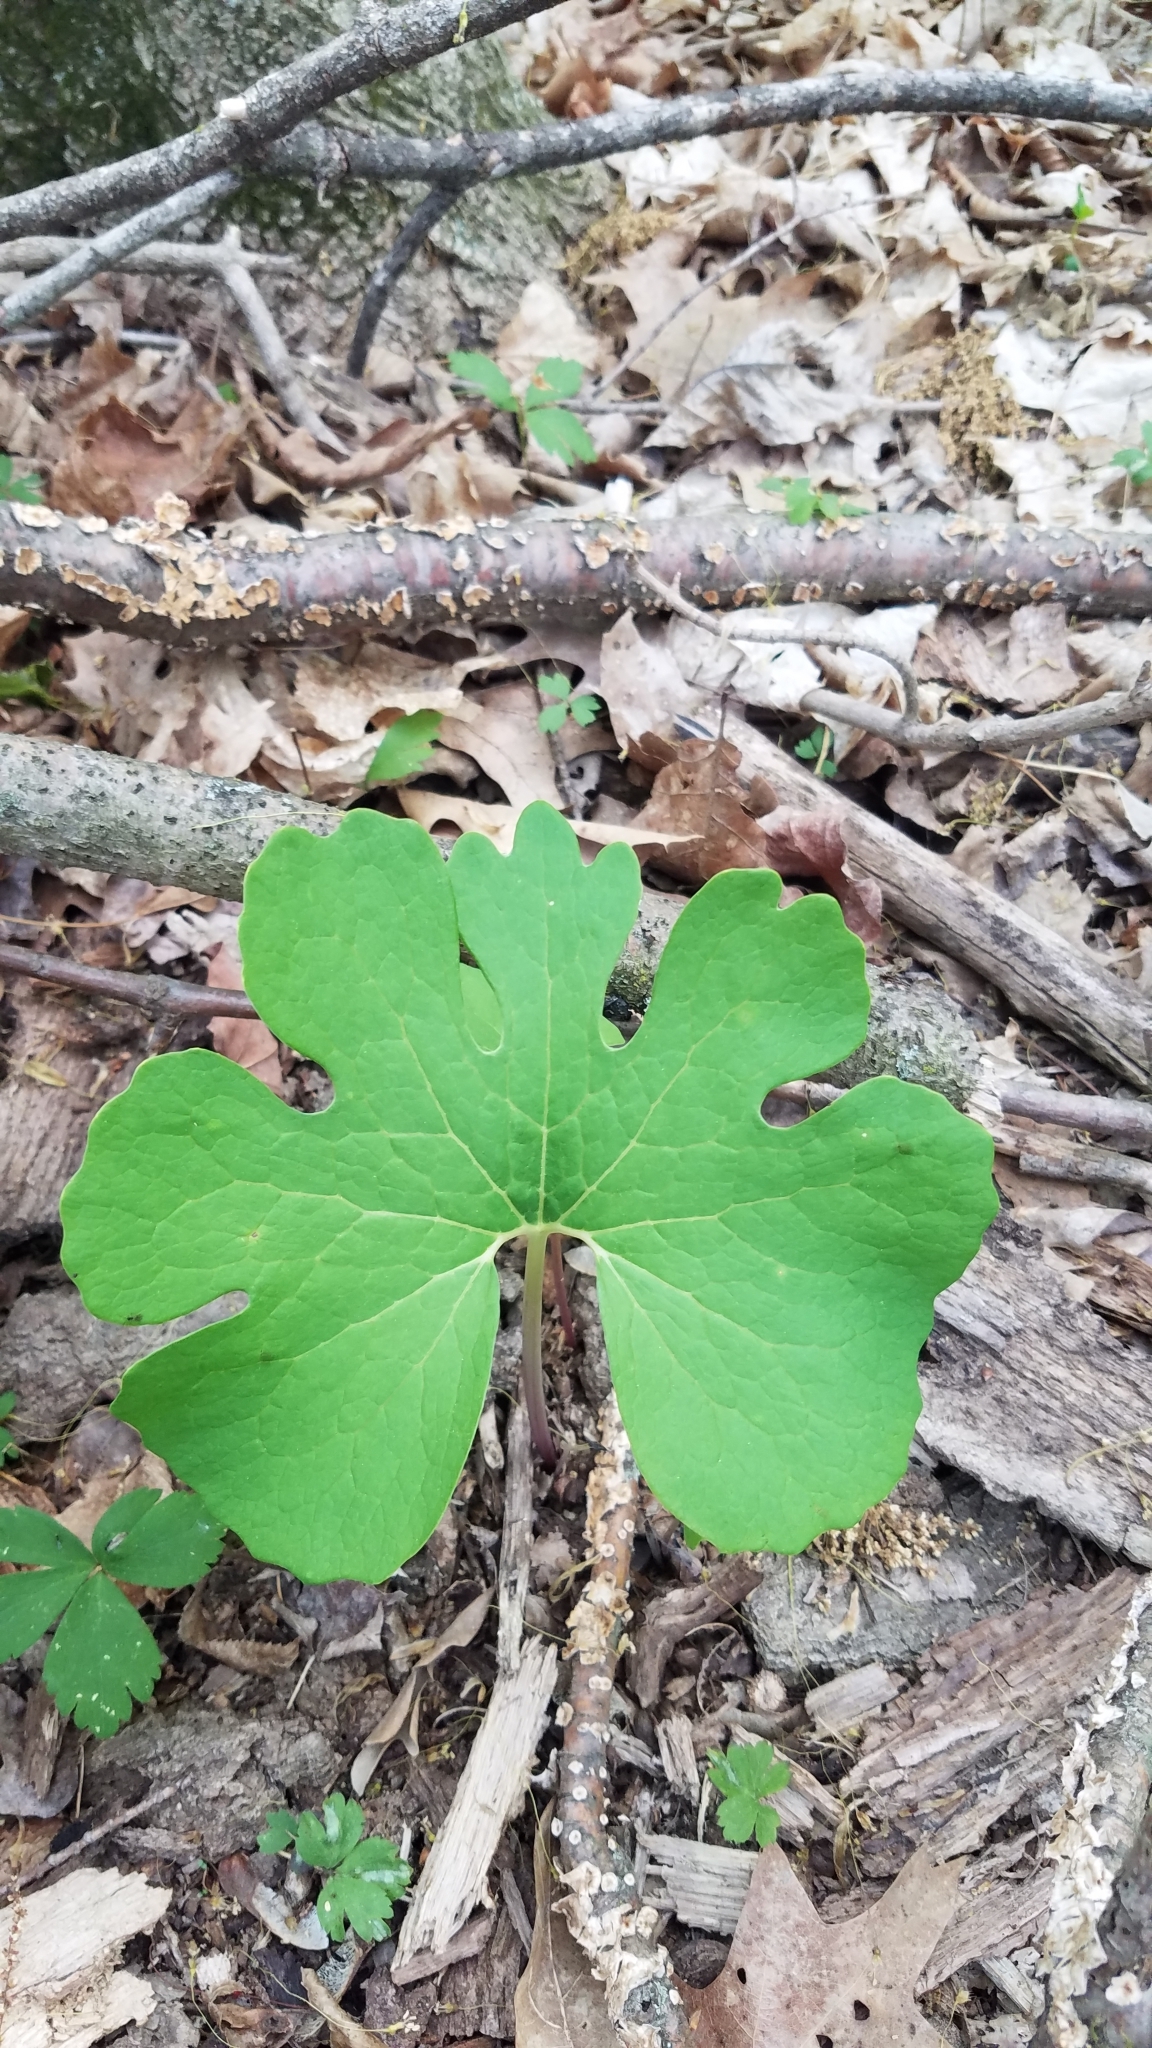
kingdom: Plantae
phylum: Tracheophyta
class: Magnoliopsida
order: Ranunculales
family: Papaveraceae
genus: Sanguinaria
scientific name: Sanguinaria canadensis
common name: Bloodroot
